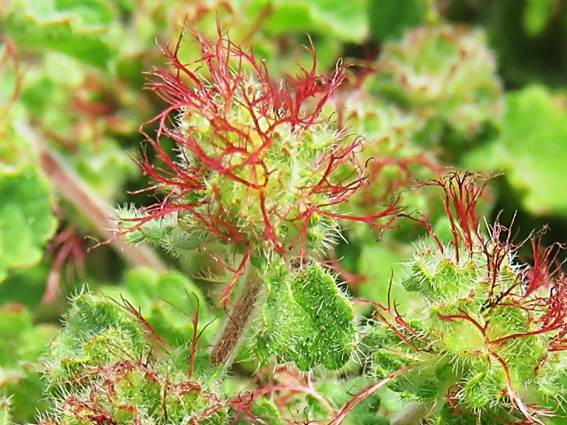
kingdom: Plantae
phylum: Tracheophyta
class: Magnoliopsida
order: Malpighiales
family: Euphorbiaceae
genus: Acalypha
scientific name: Acalypha monostachya
